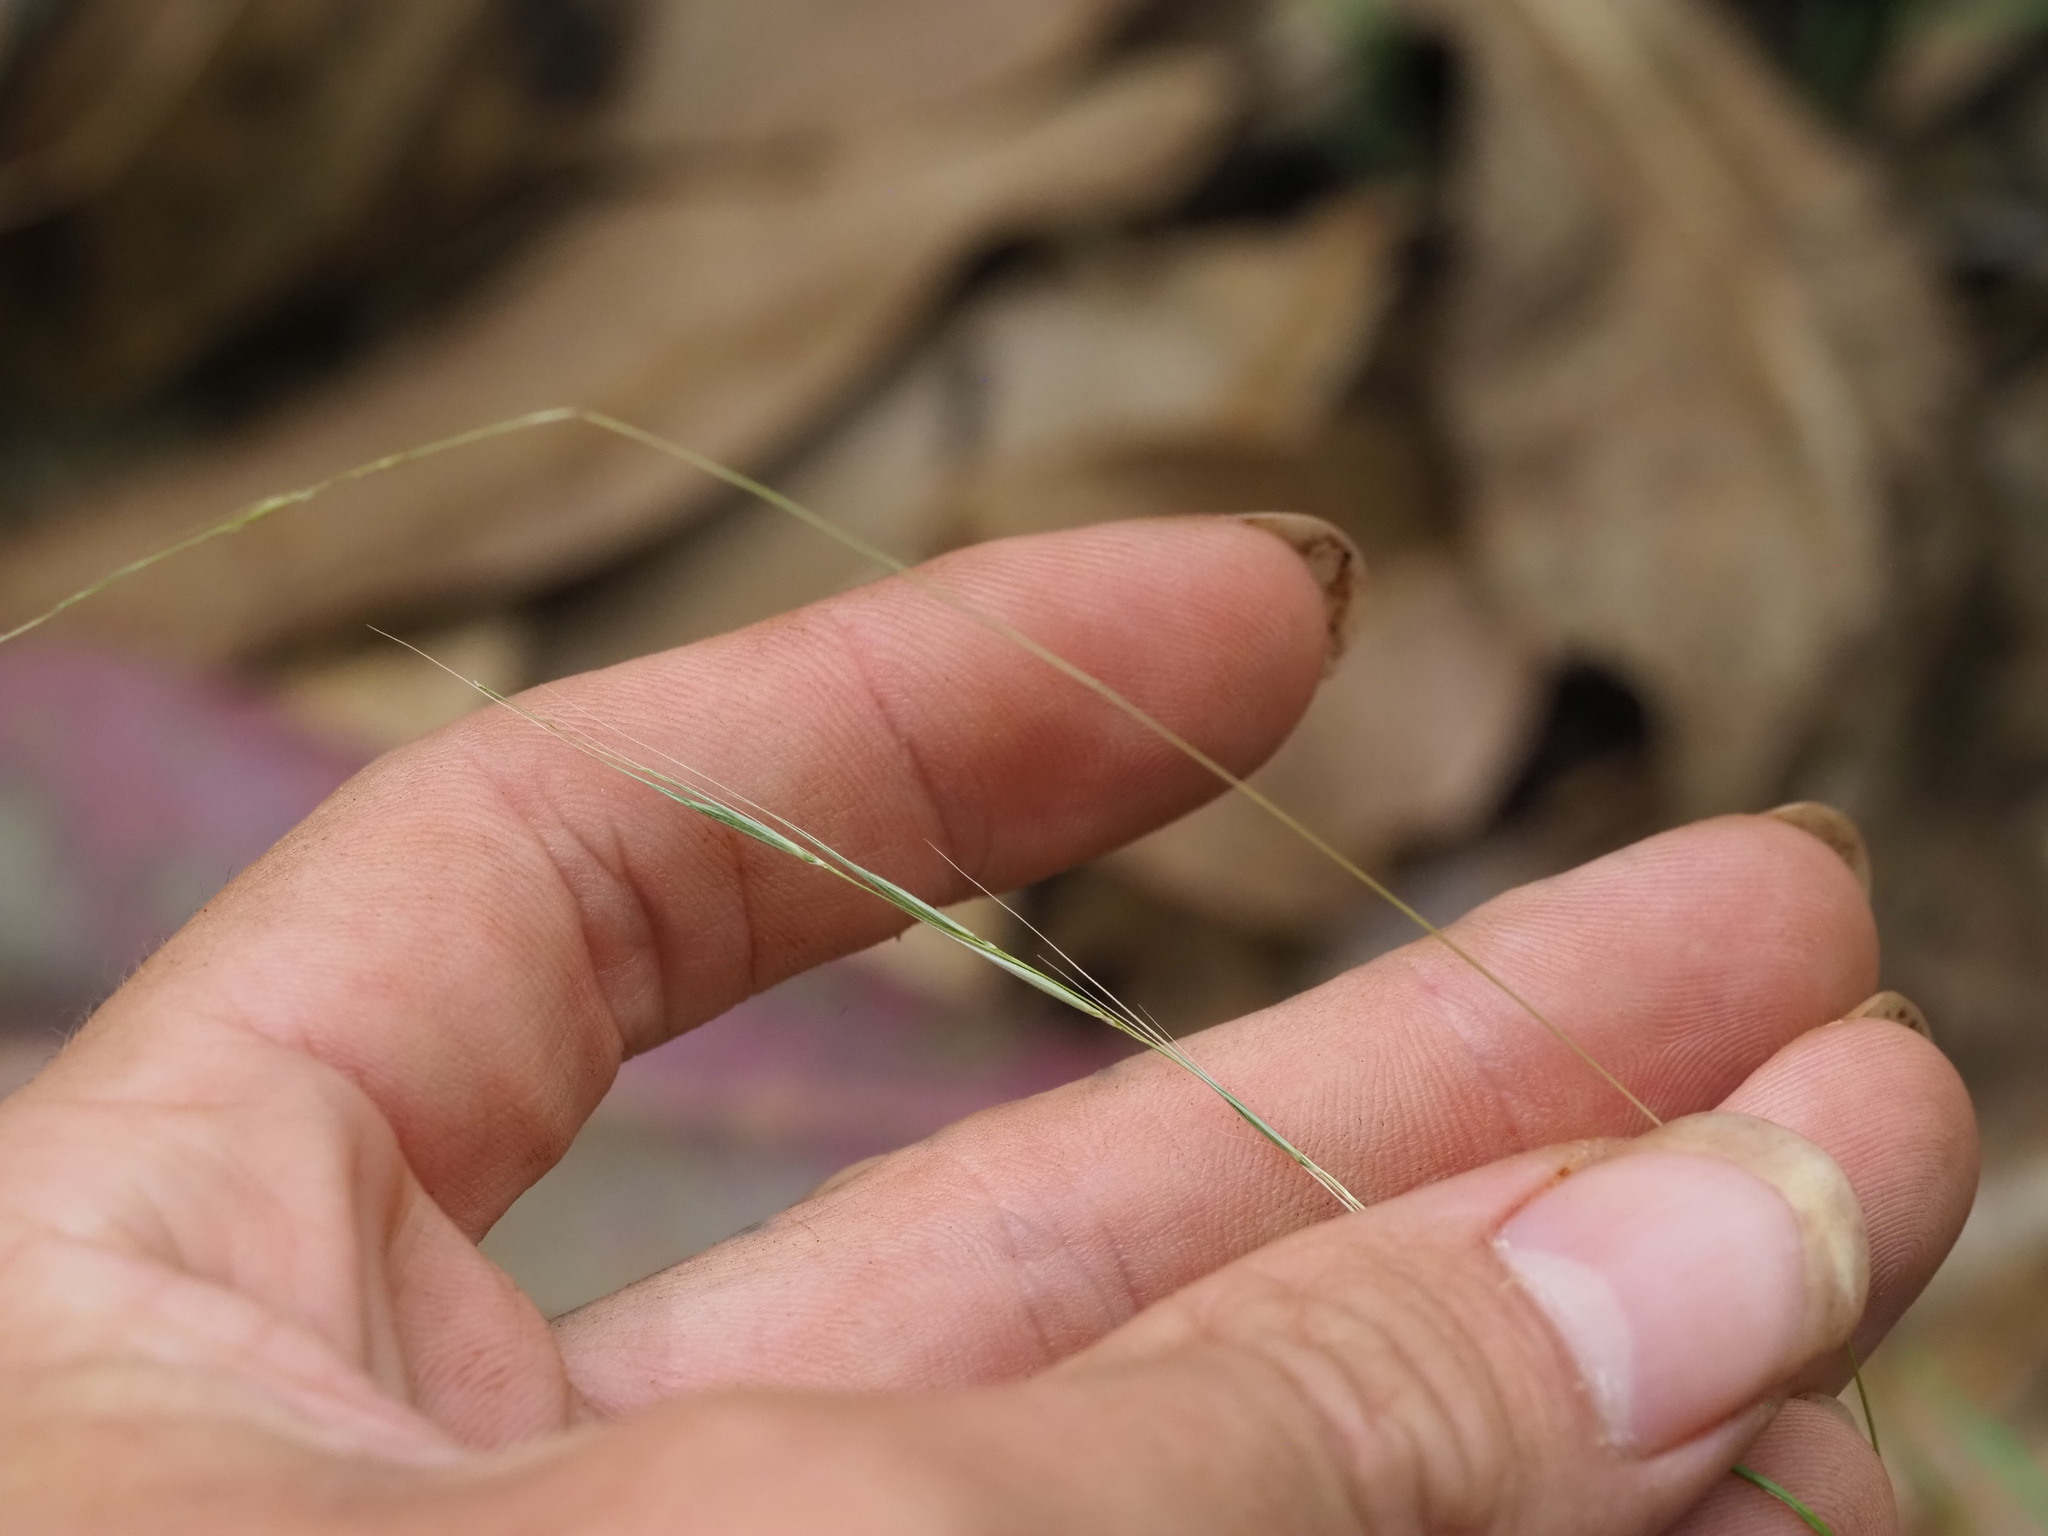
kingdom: Plantae
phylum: Tracheophyta
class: Liliopsida
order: Poales
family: Poaceae
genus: Microlaena
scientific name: Microlaena stipoides
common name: Meadow ricegrass
